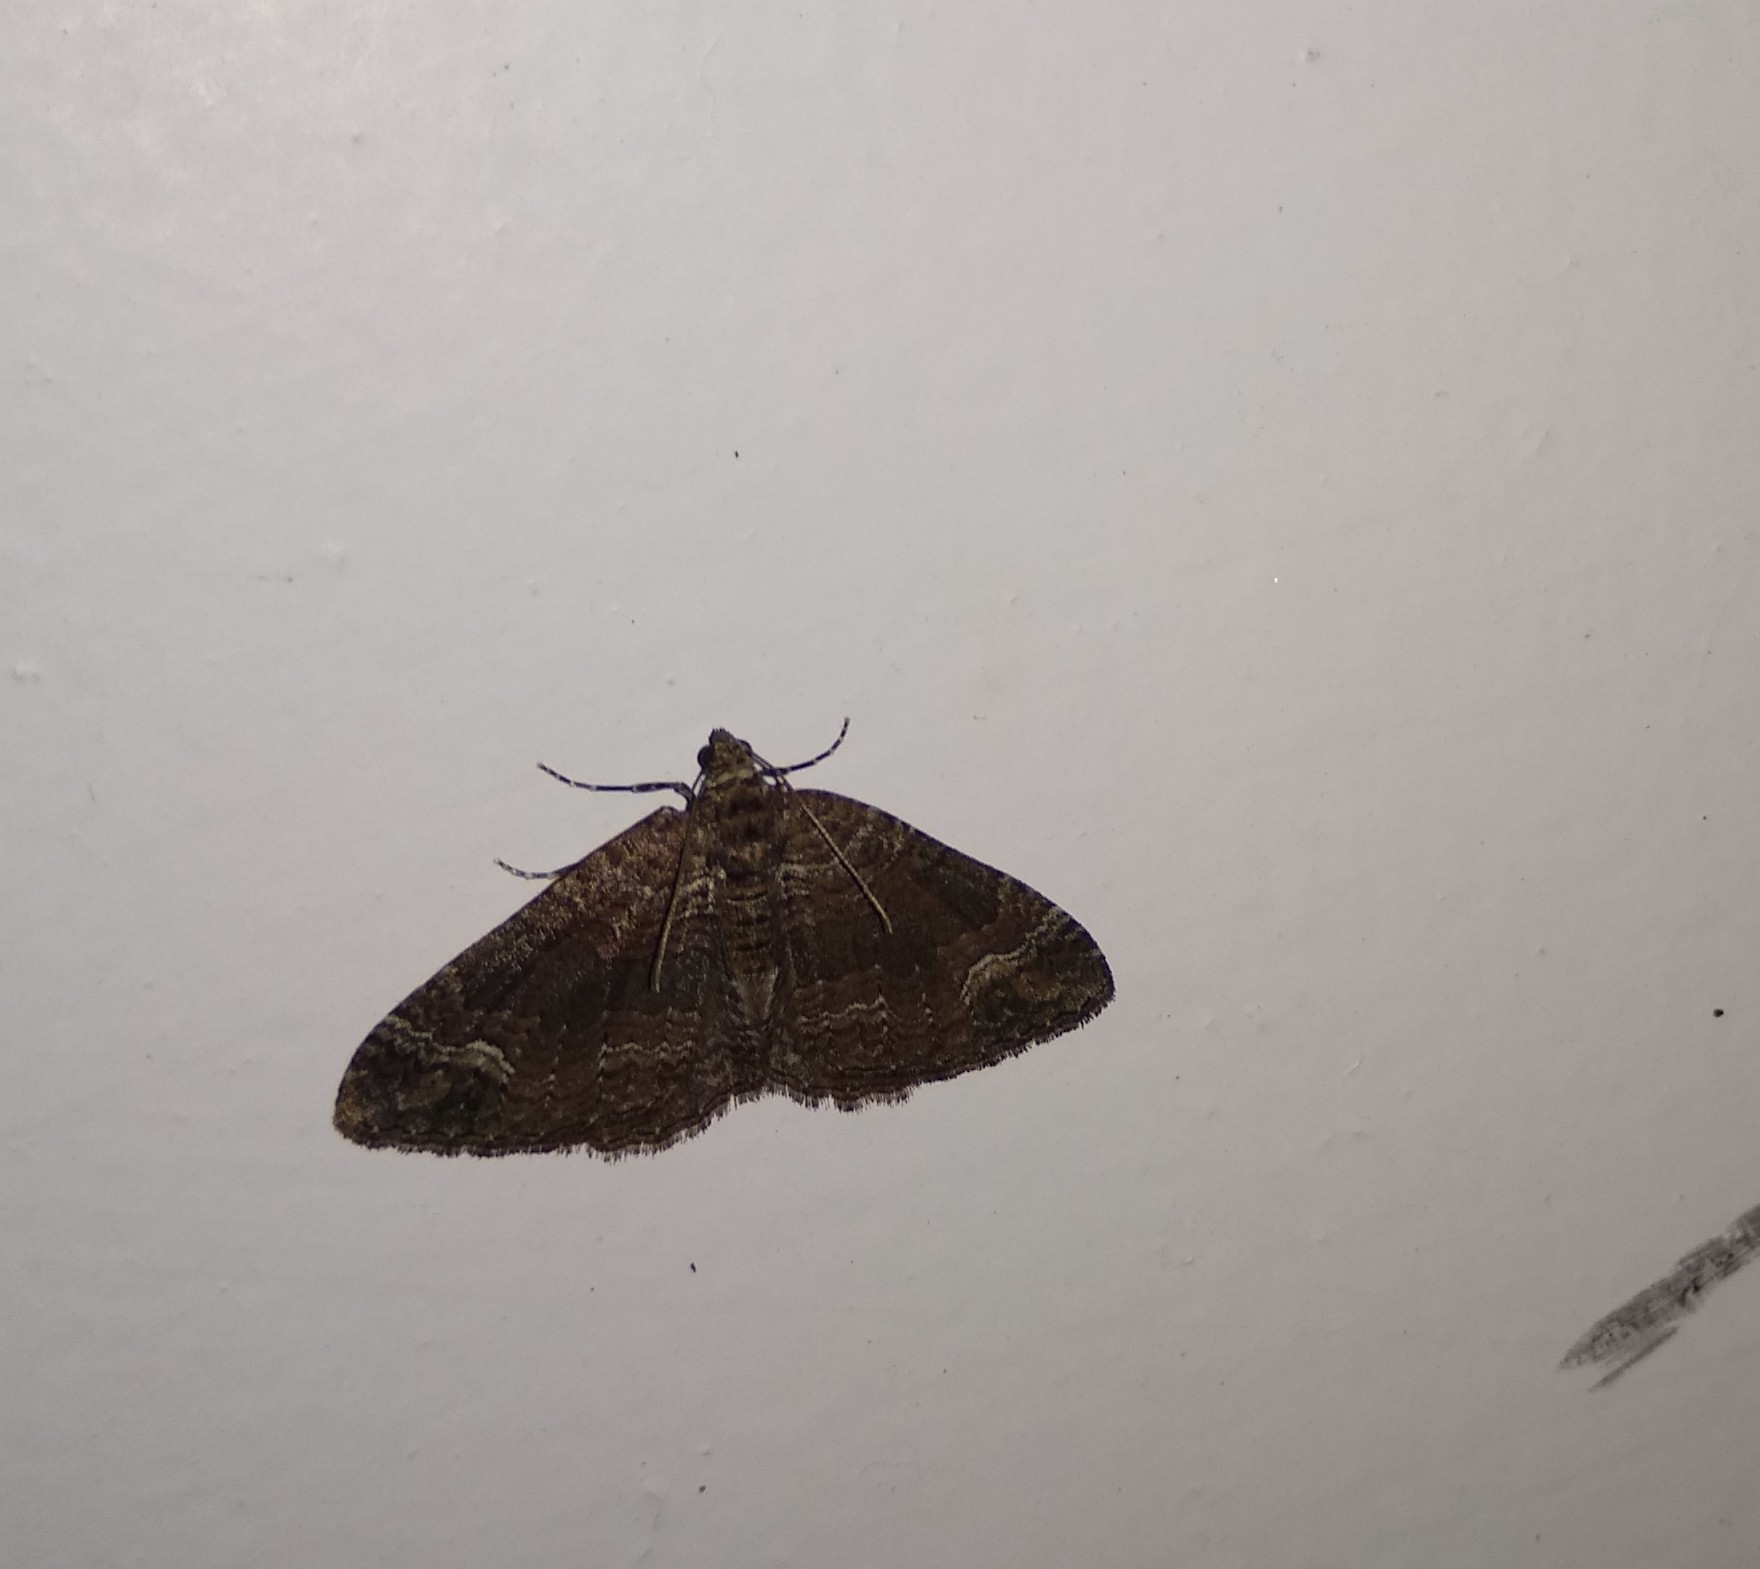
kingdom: Animalia
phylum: Arthropoda
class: Insecta
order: Lepidoptera
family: Geometridae
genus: Catarhoe
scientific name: Catarhoe basochesiata
